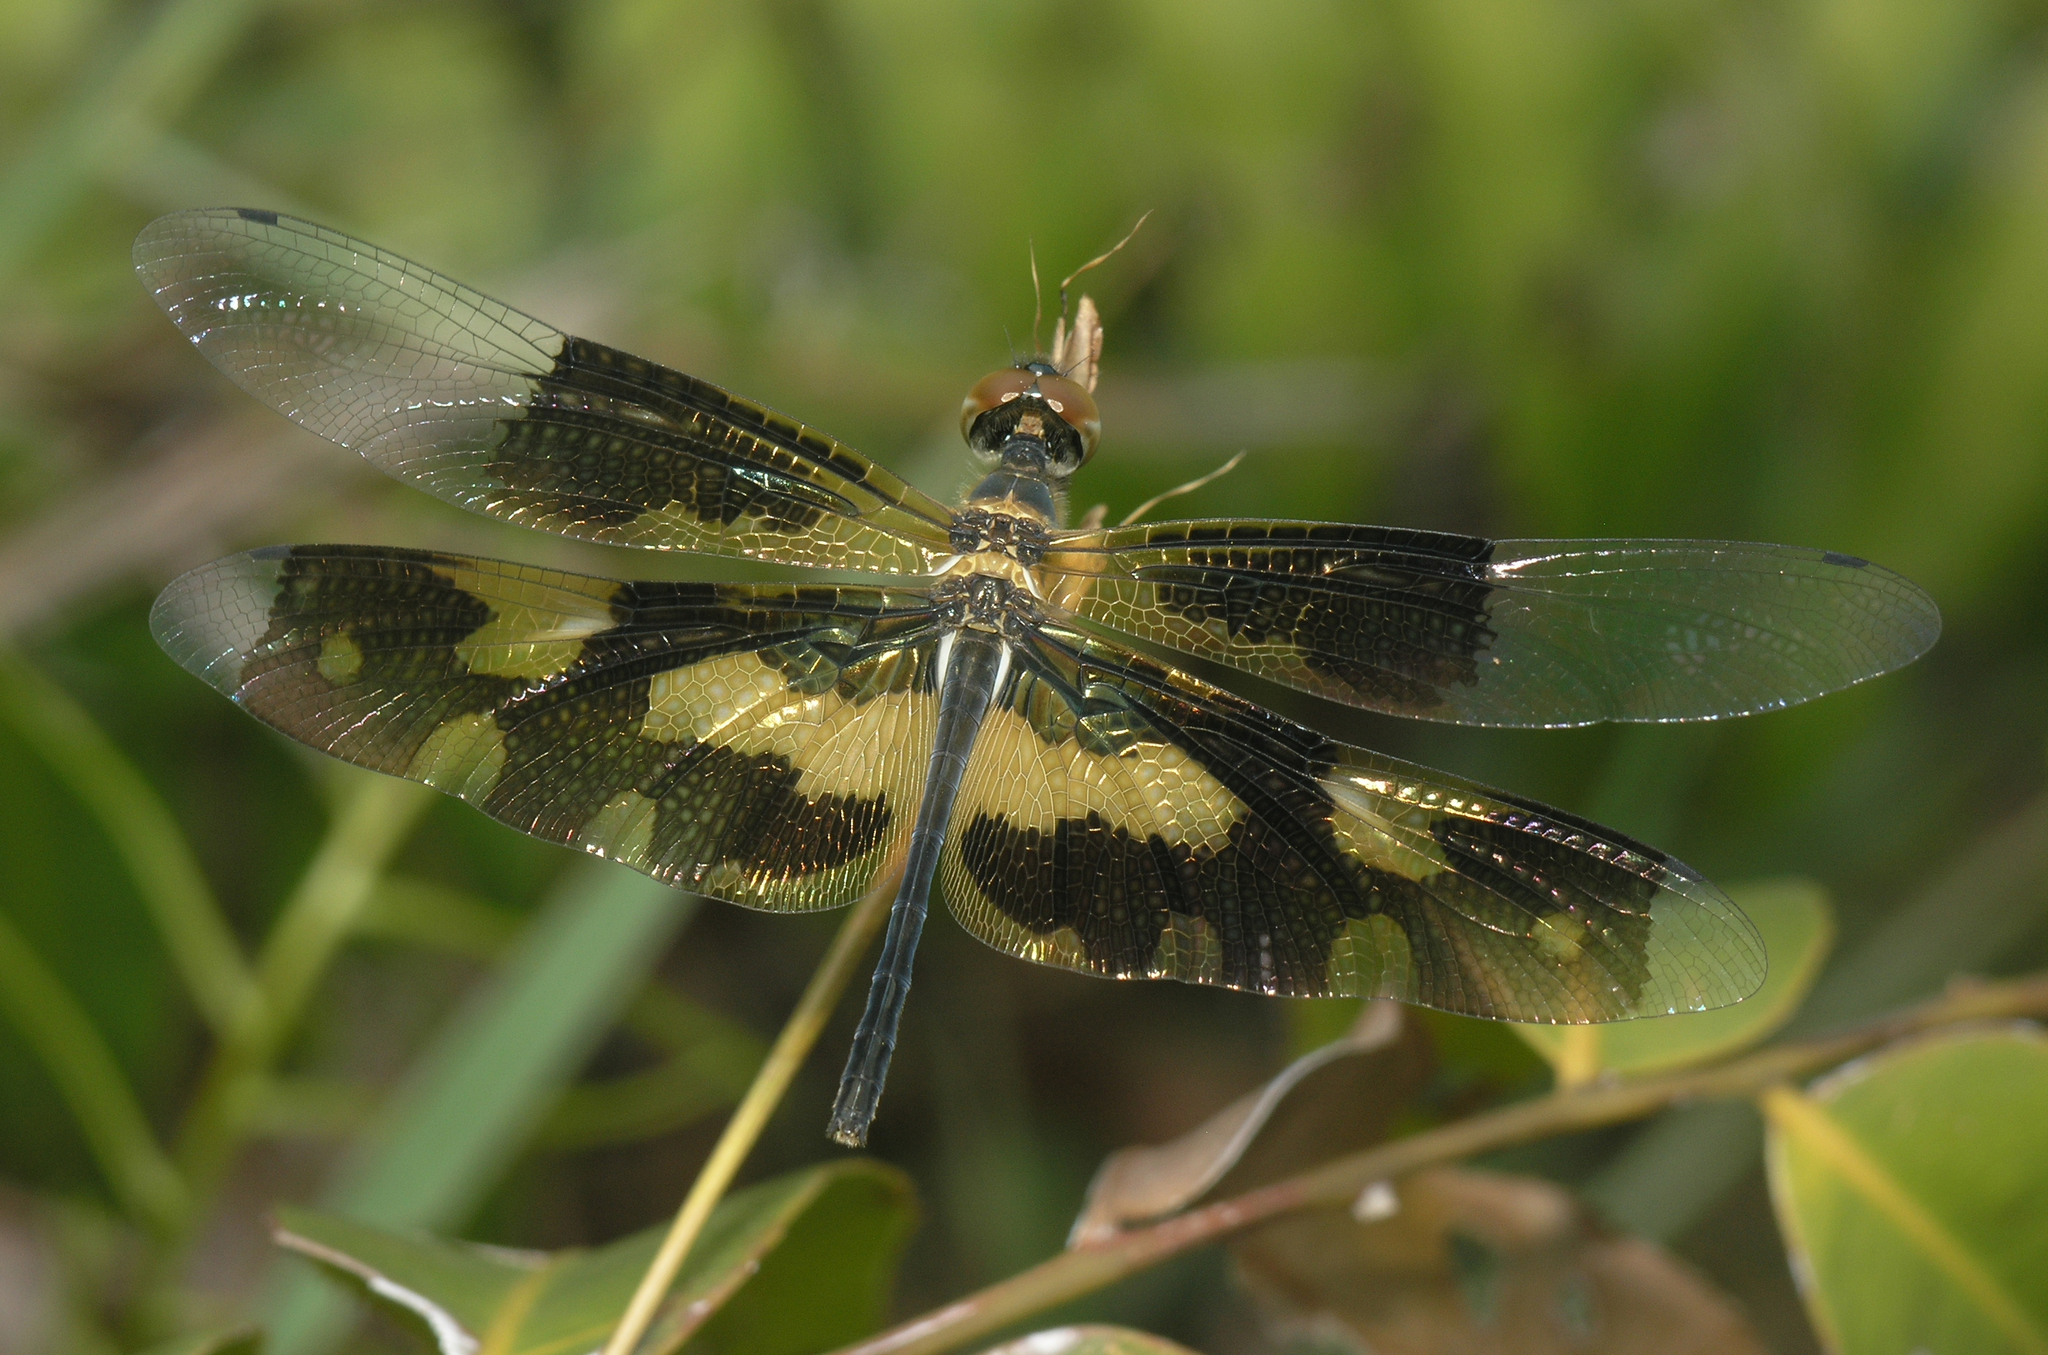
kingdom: Animalia
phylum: Arthropoda
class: Insecta
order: Odonata
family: Libellulidae
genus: Rhyothemis
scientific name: Rhyothemis variegata
